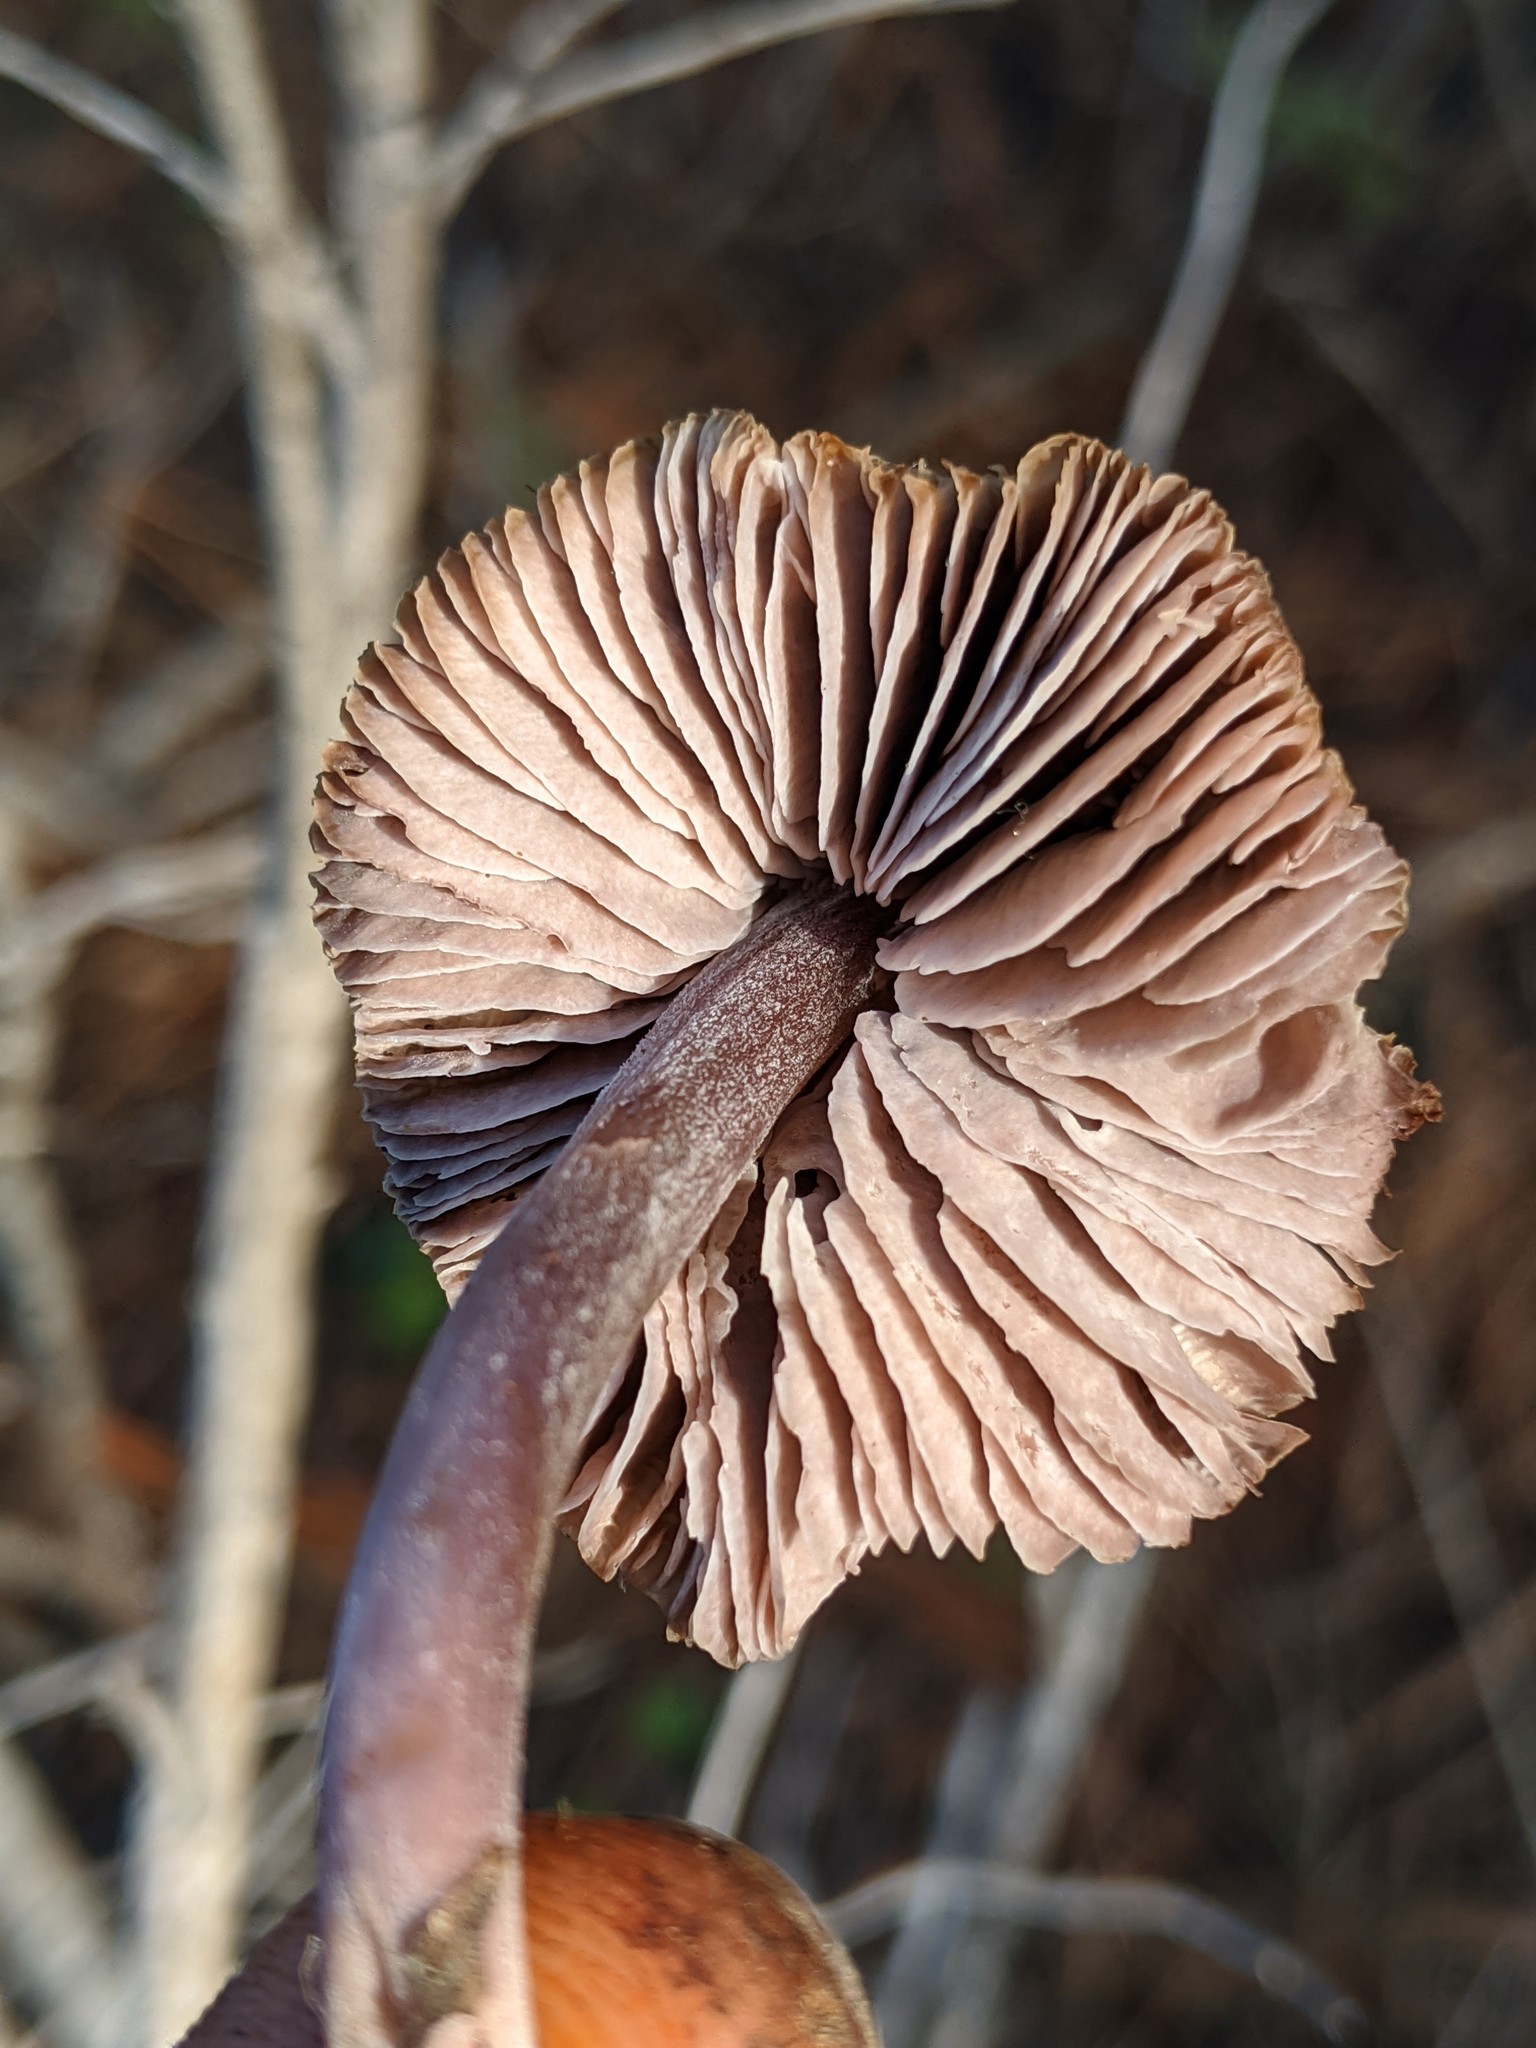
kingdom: Fungi
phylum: Basidiomycota
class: Agaricomycetes
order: Agaricales
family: Mycenaceae
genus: Mycena
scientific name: Mycena pura
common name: Lilac bonnet
